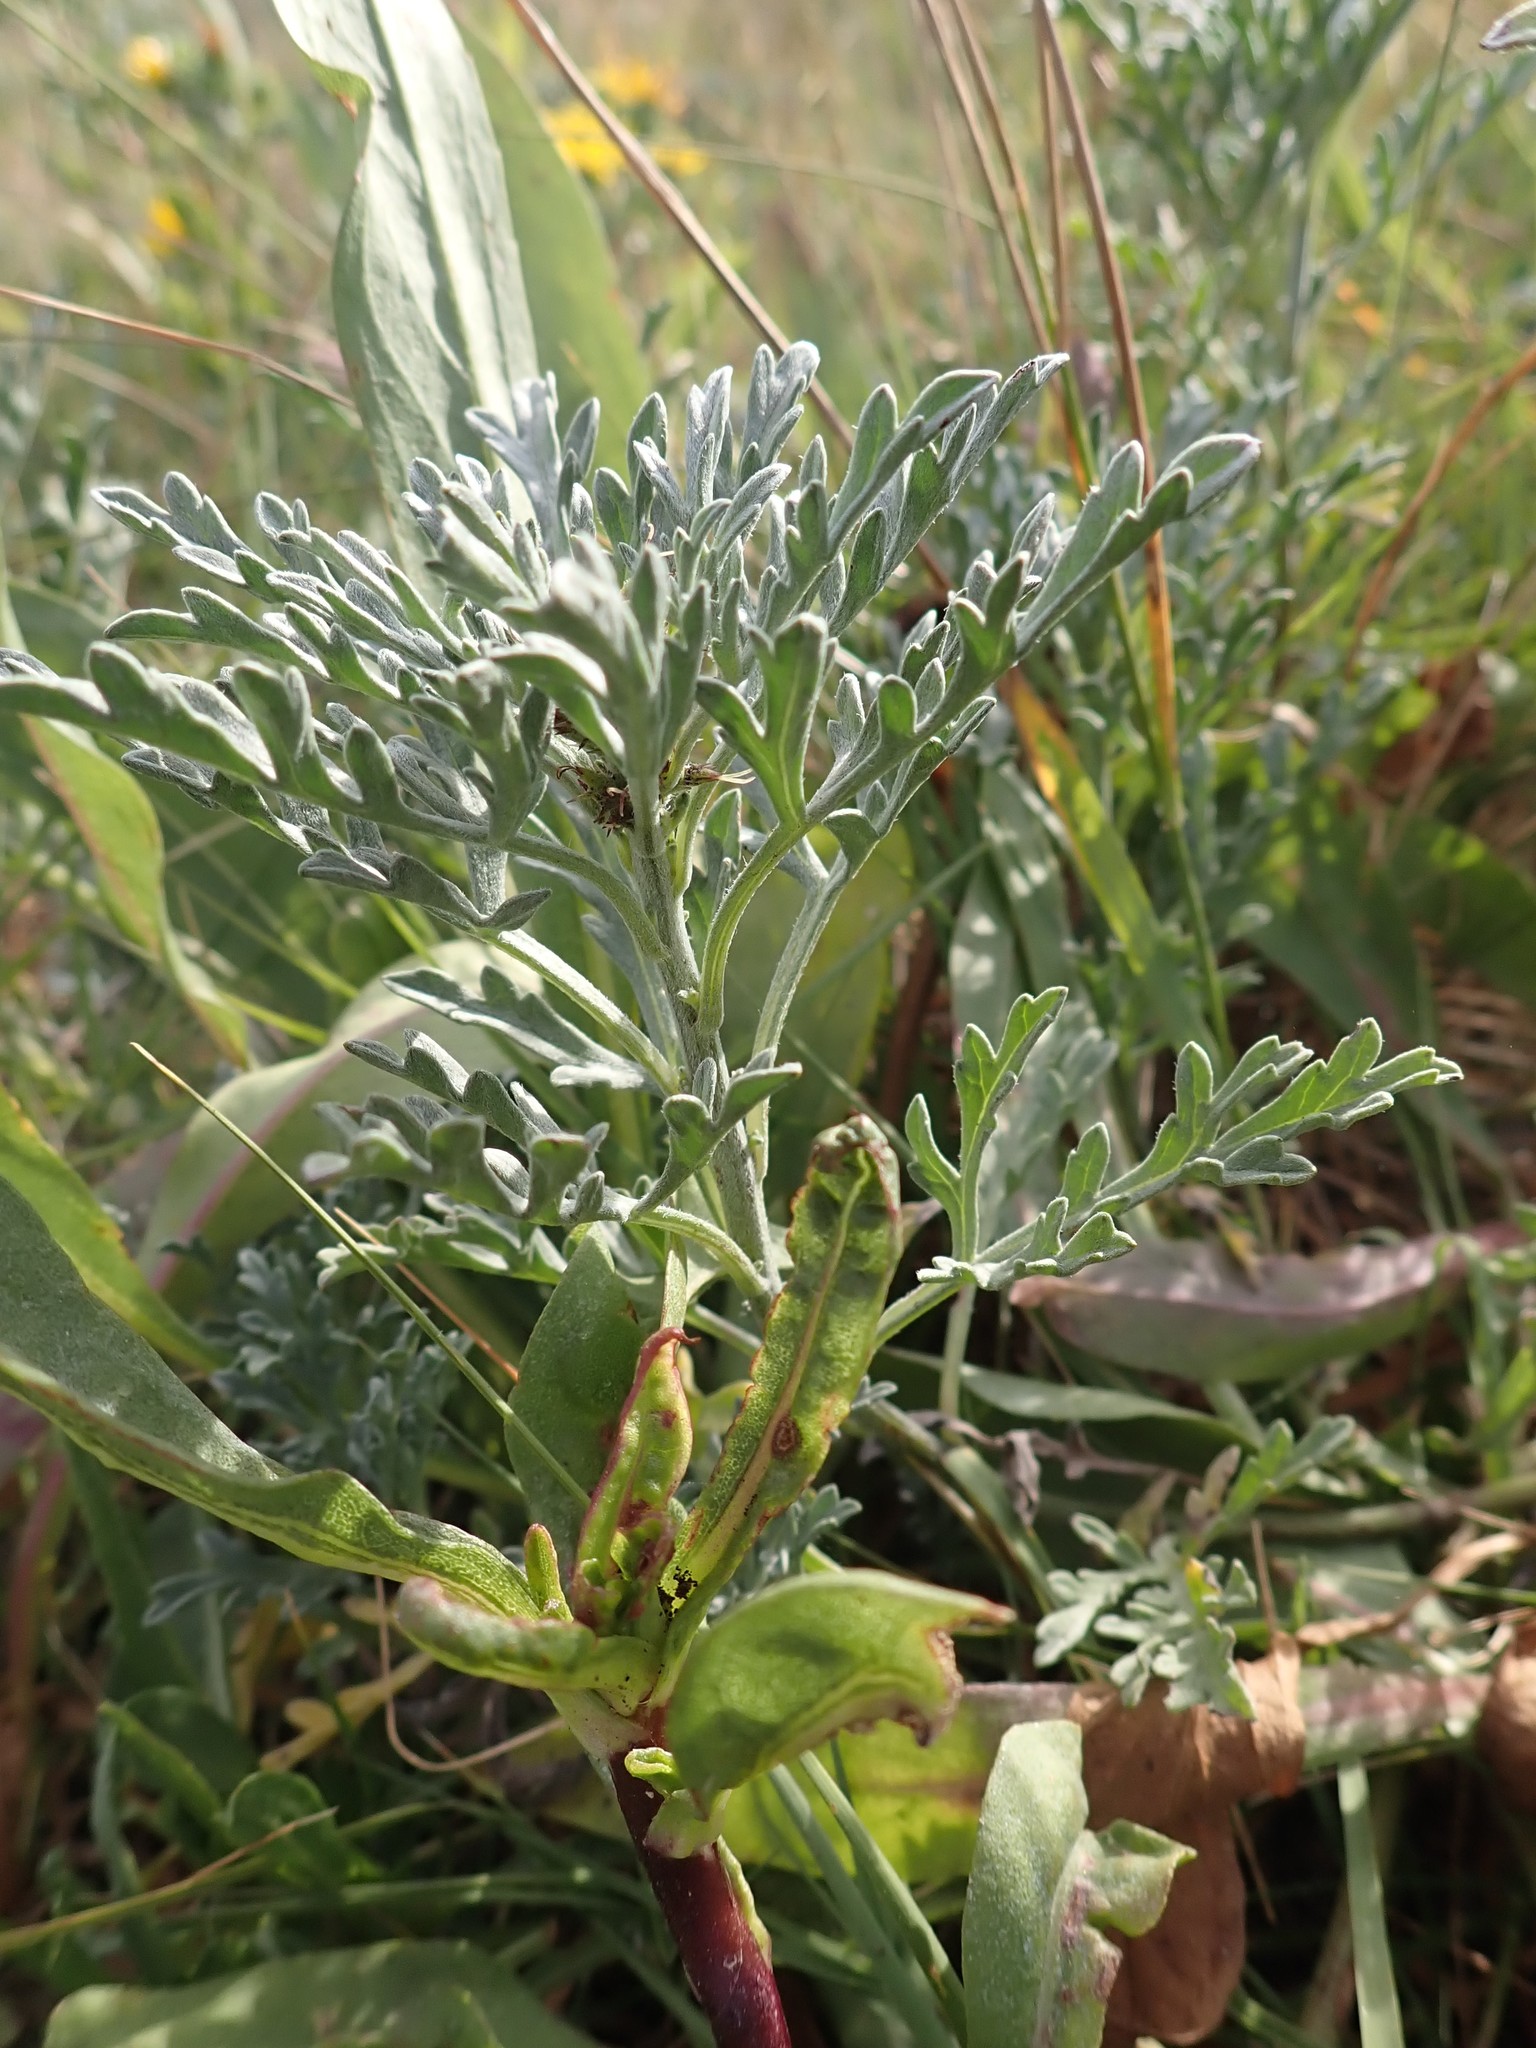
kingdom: Plantae
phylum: Tracheophyta
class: Magnoliopsida
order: Asterales
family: Asteraceae
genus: Ambrosia
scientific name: Ambrosia chamissonis
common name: Beachbur
